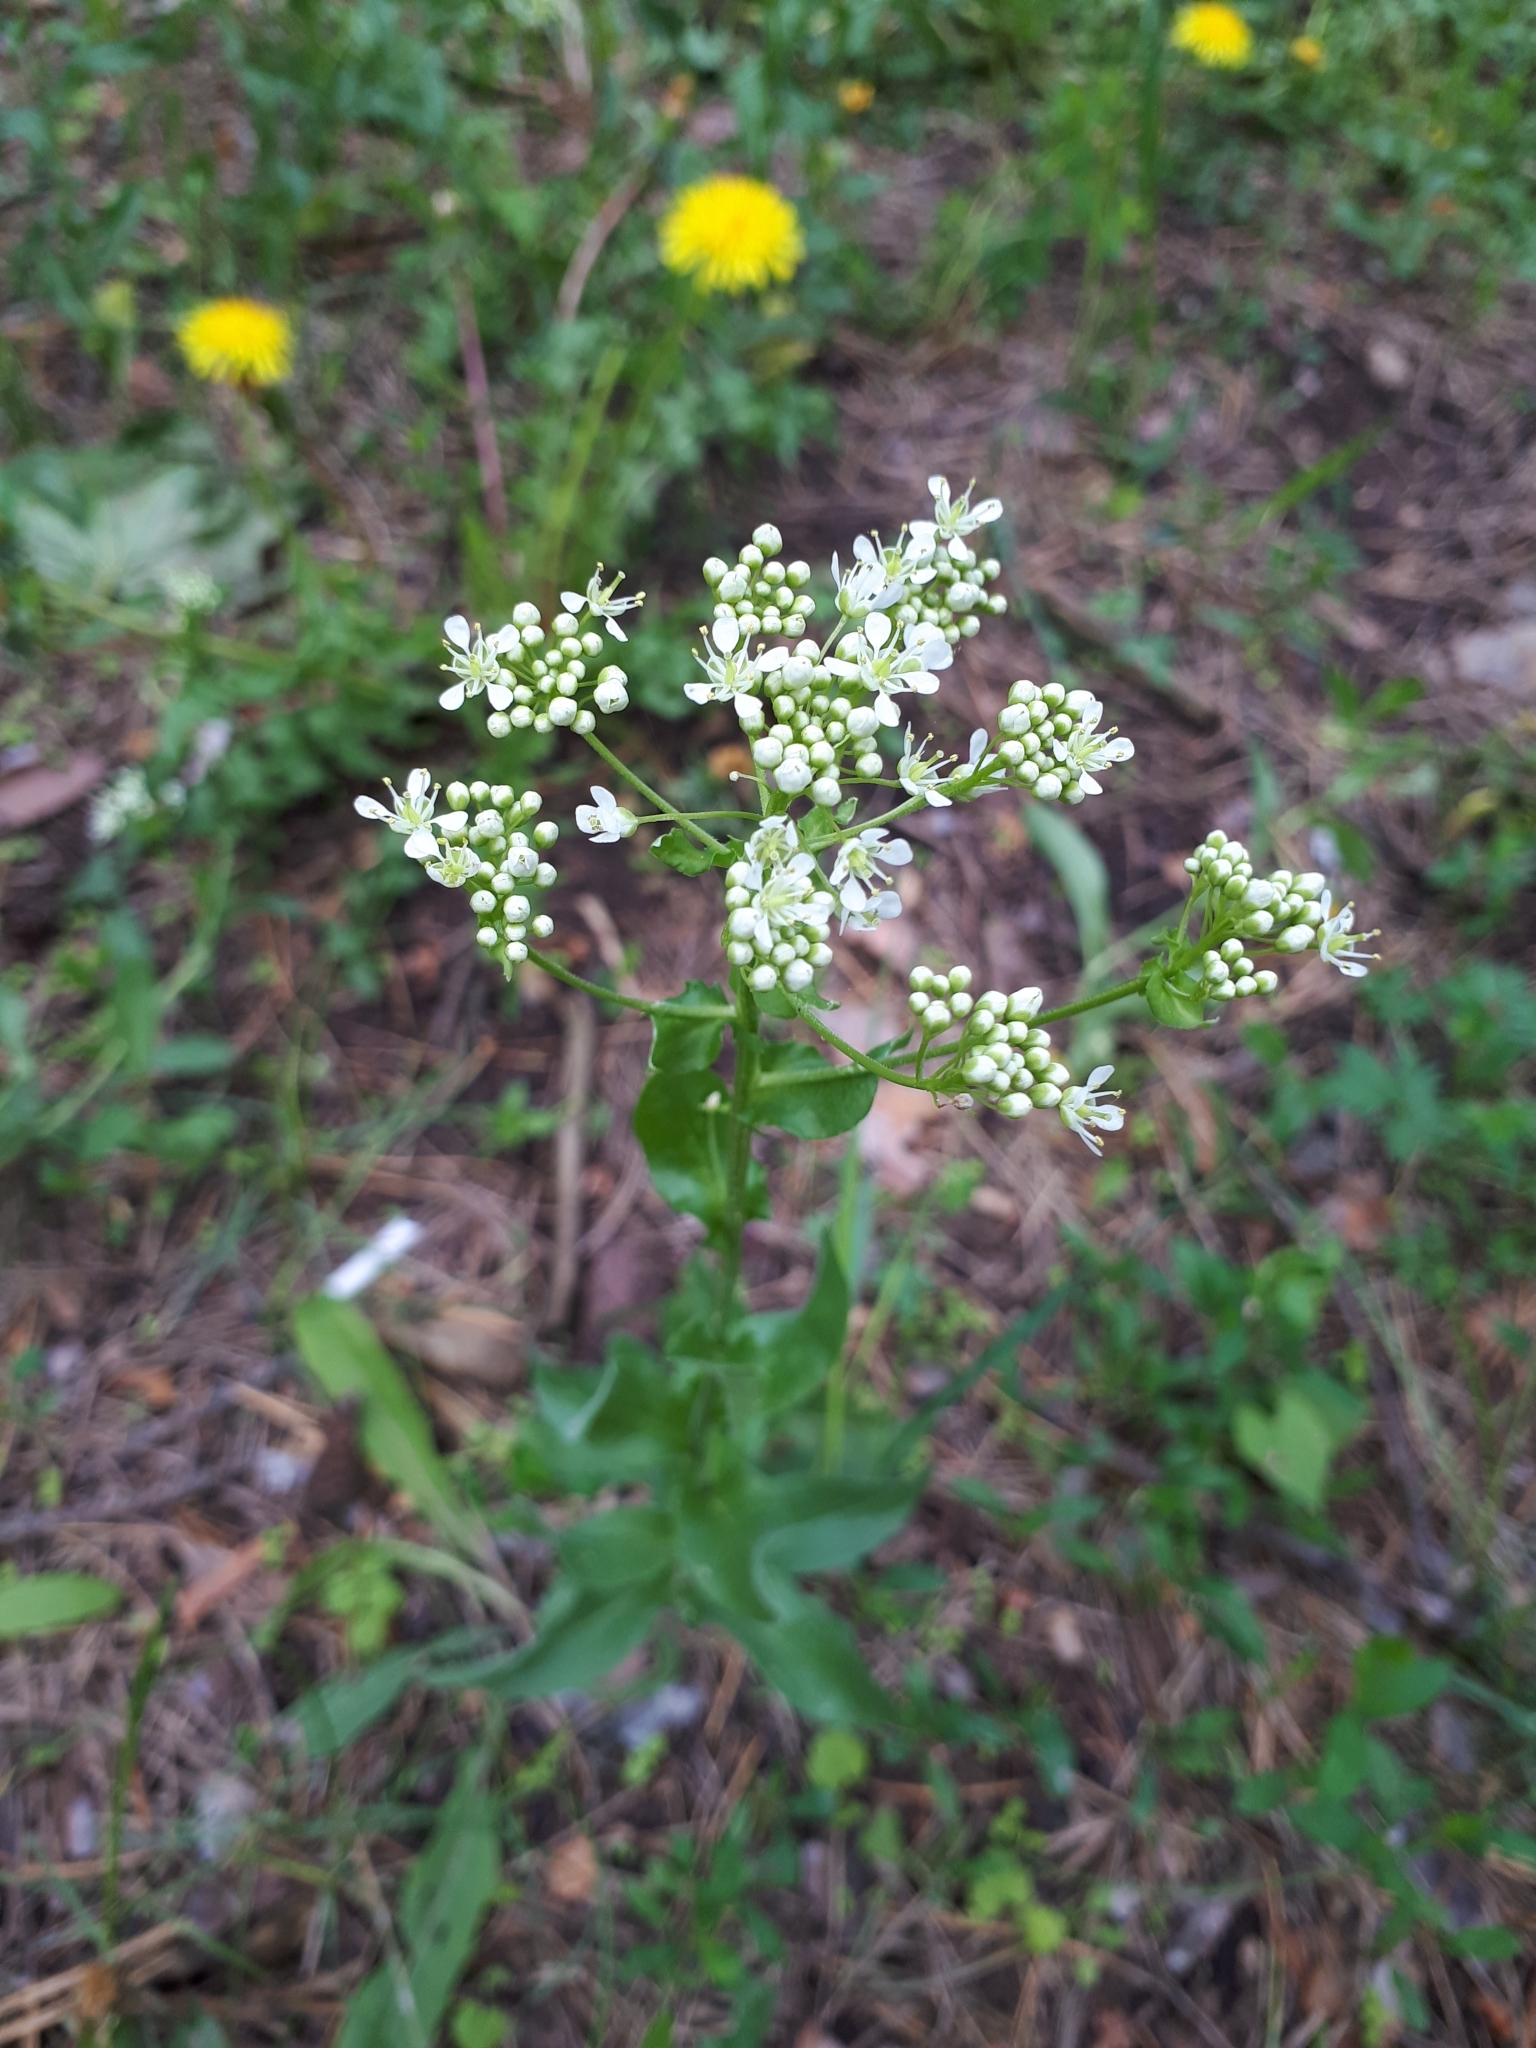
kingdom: Plantae
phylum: Tracheophyta
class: Magnoliopsida
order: Brassicales
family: Brassicaceae
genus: Lepidium
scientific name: Lepidium draba
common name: Hoary cress
